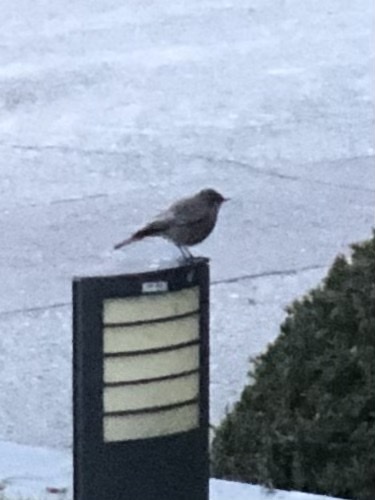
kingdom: Animalia
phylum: Chordata
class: Aves
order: Passeriformes
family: Muscicapidae
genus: Phoenicurus
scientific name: Phoenicurus ochruros
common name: Black redstart
